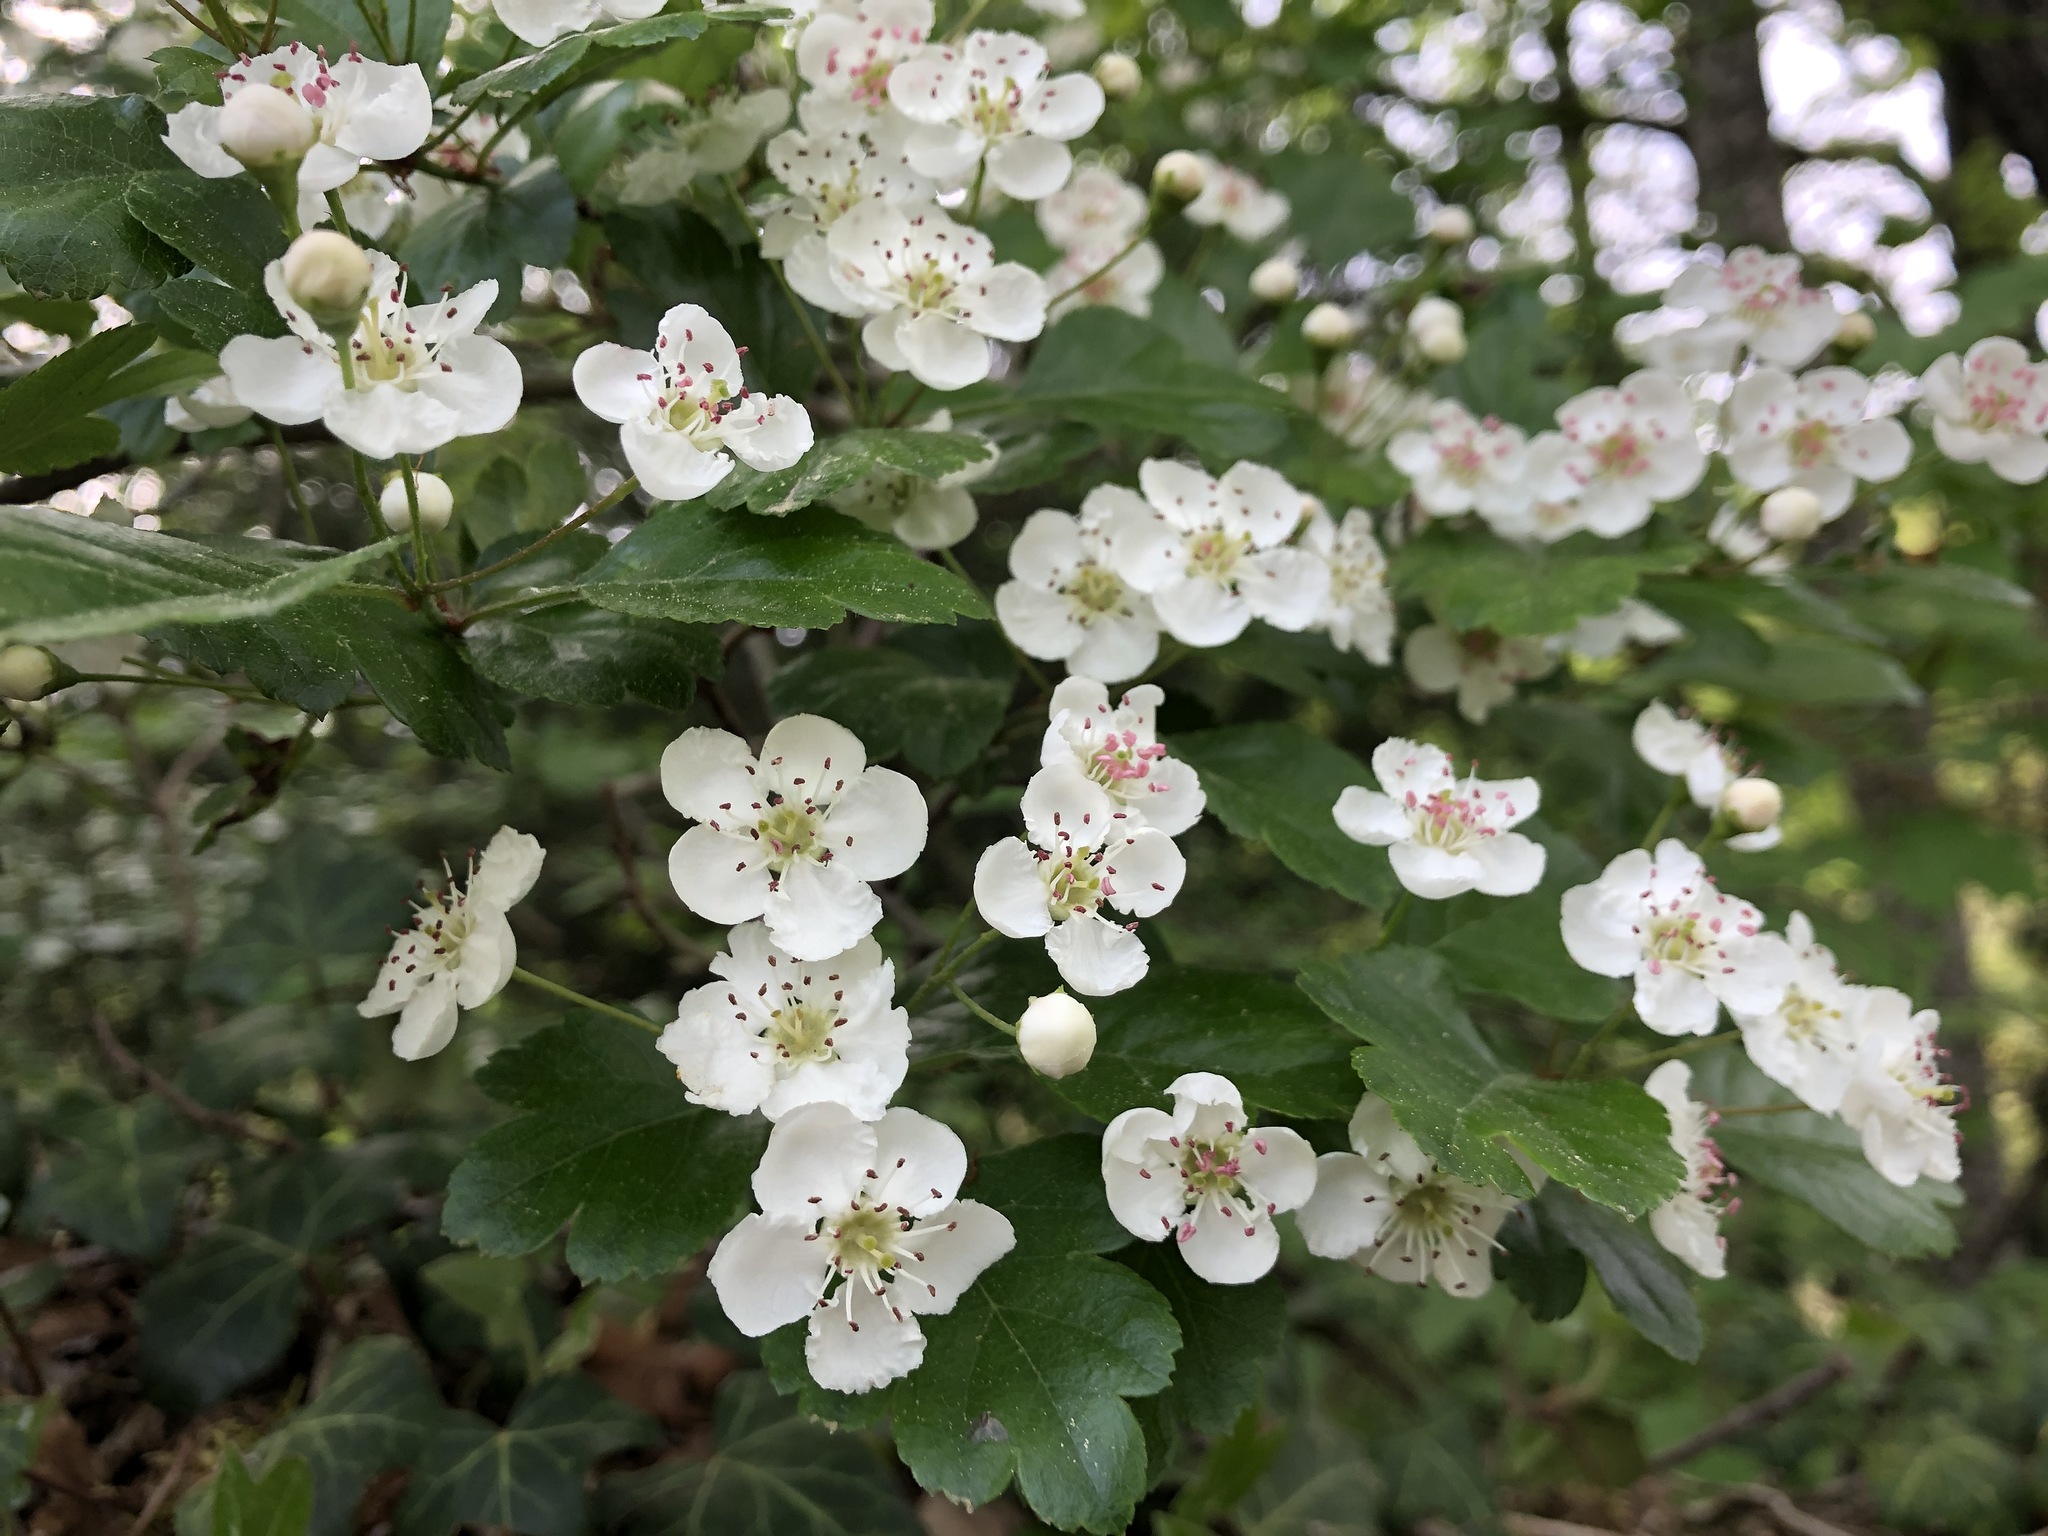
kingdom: Plantae
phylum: Tracheophyta
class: Magnoliopsida
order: Rosales
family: Rosaceae
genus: Crataegus
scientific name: Crataegus laevigata
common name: Midland hawthorn
